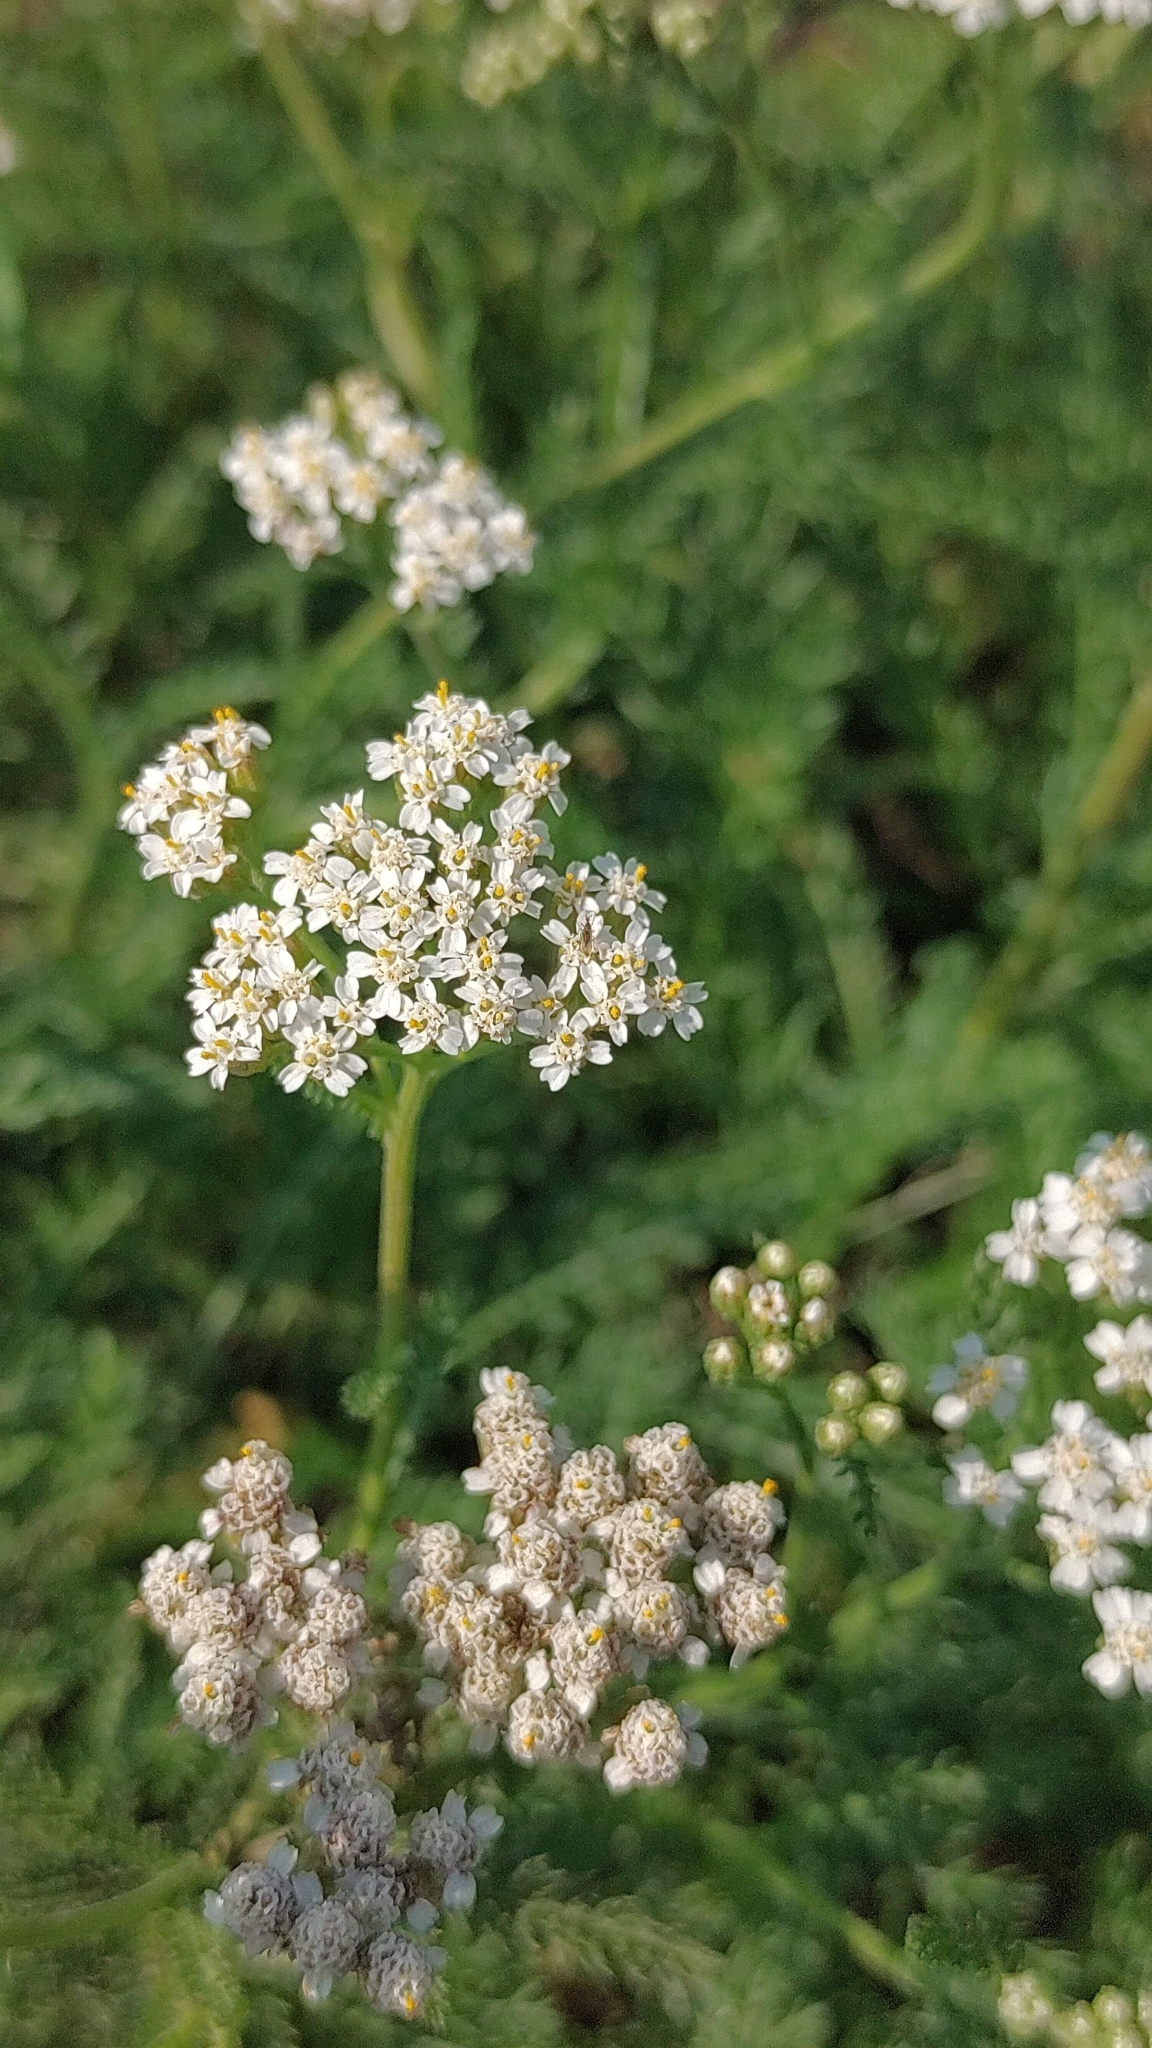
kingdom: Plantae
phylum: Tracheophyta
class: Magnoliopsida
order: Asterales
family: Asteraceae
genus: Achillea
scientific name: Achillea millefolium
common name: Yarrow
